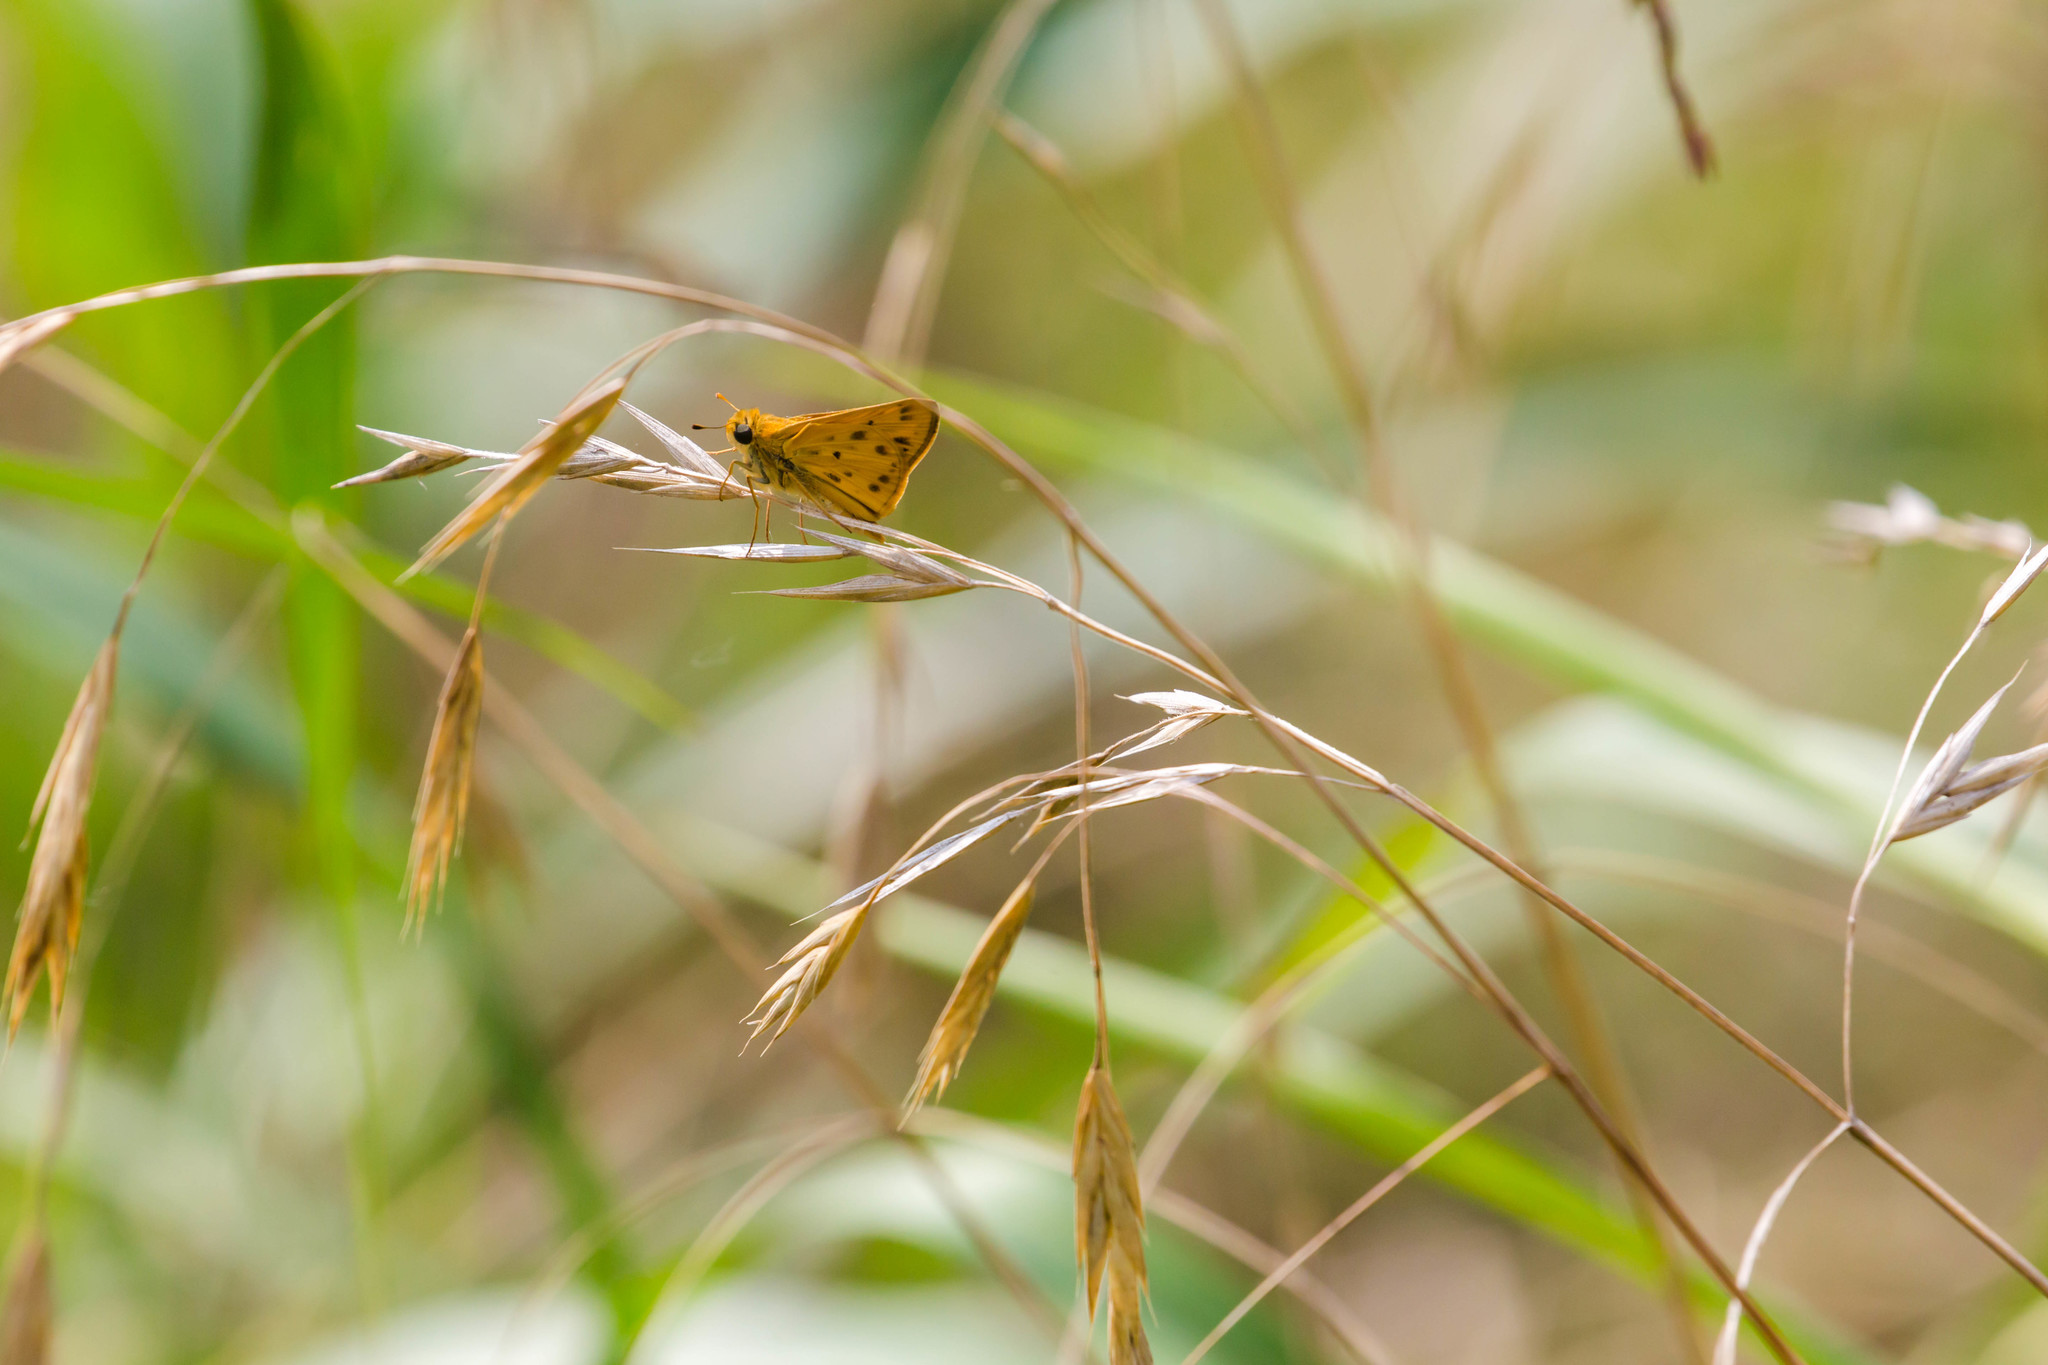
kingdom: Animalia
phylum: Arthropoda
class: Insecta
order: Lepidoptera
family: Hesperiidae
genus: Hylephila
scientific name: Hylephila phyleus
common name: Fiery skipper
